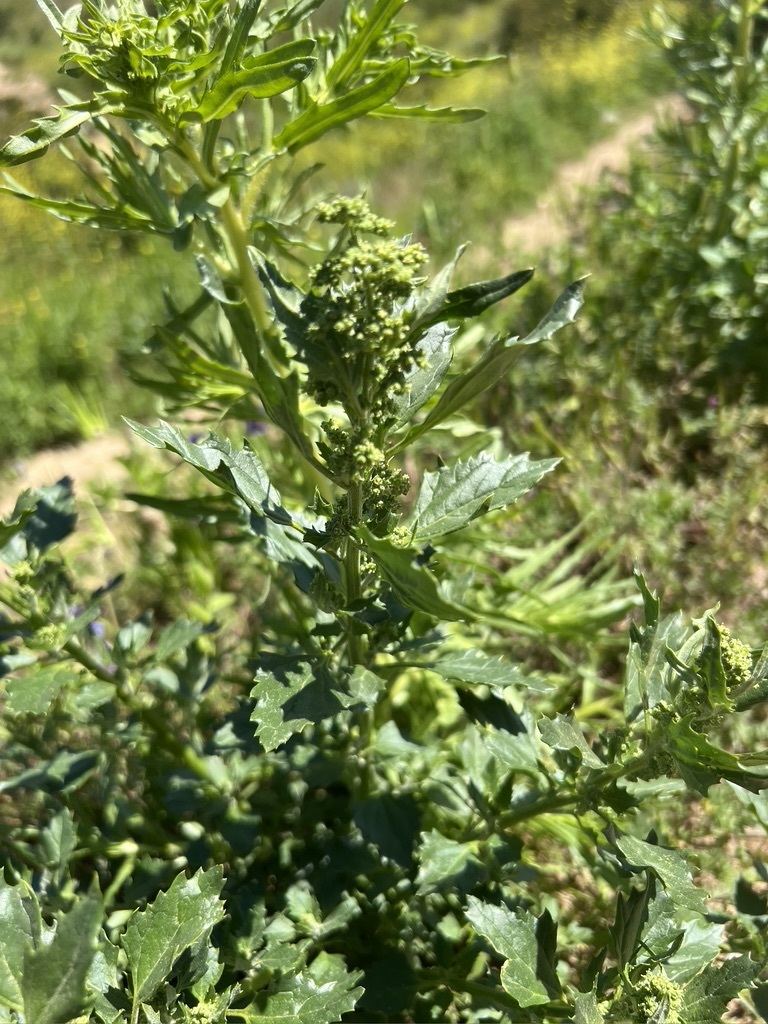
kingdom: Plantae
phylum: Tracheophyta
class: Magnoliopsida
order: Caryophyllales
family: Amaranthaceae
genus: Chenopodiastrum
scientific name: Chenopodiastrum murale
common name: Sowbane
